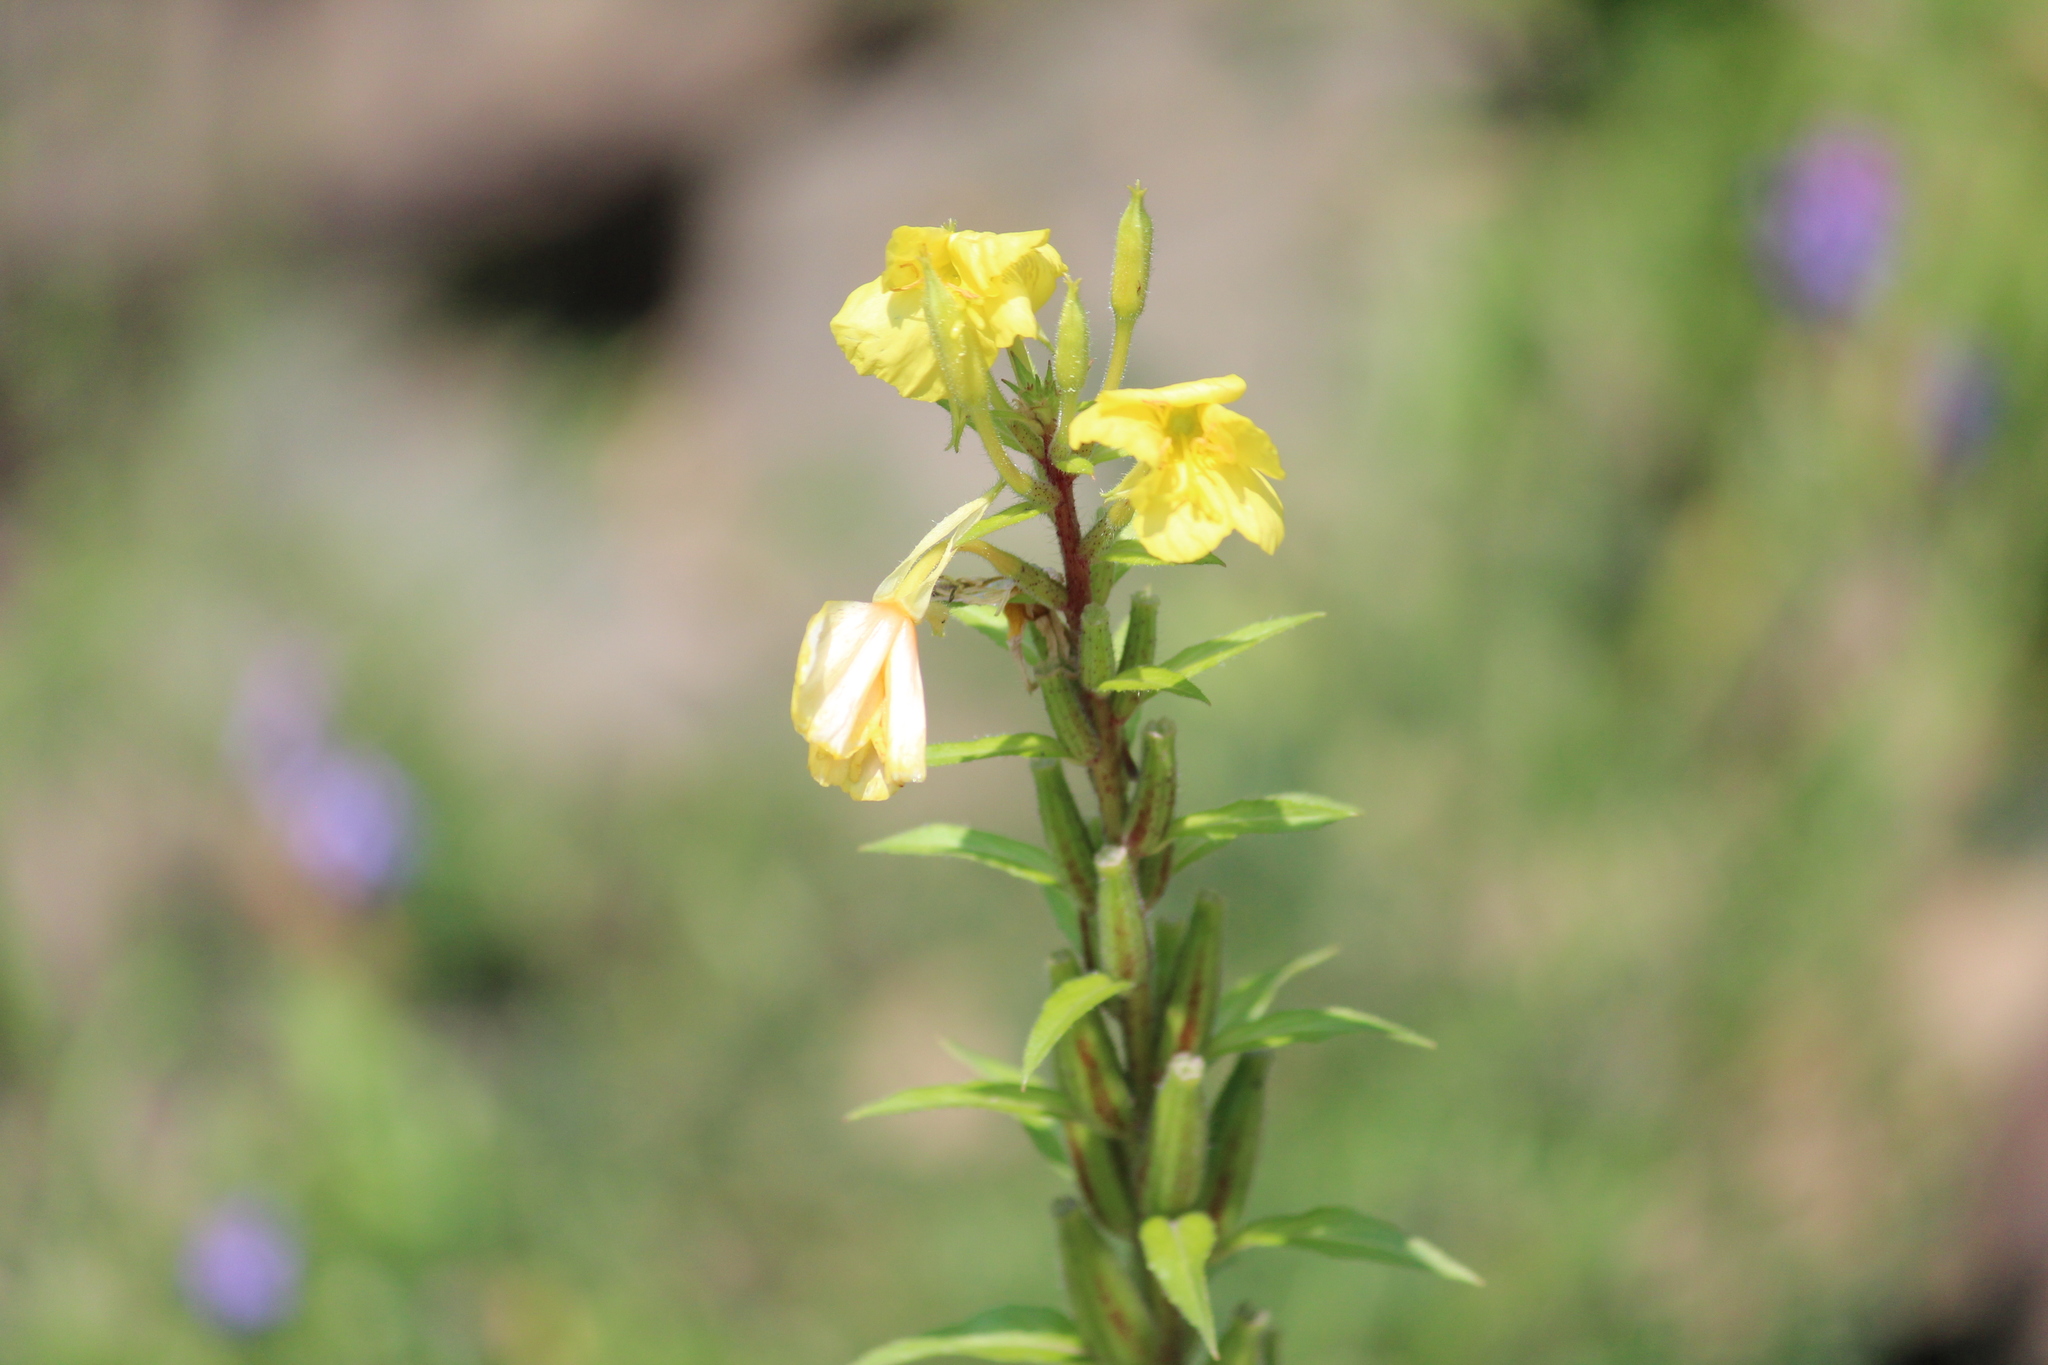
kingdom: Plantae
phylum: Tracheophyta
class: Magnoliopsida
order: Myrtales
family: Onagraceae
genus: Oenothera
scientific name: Oenothera rubricaulis
